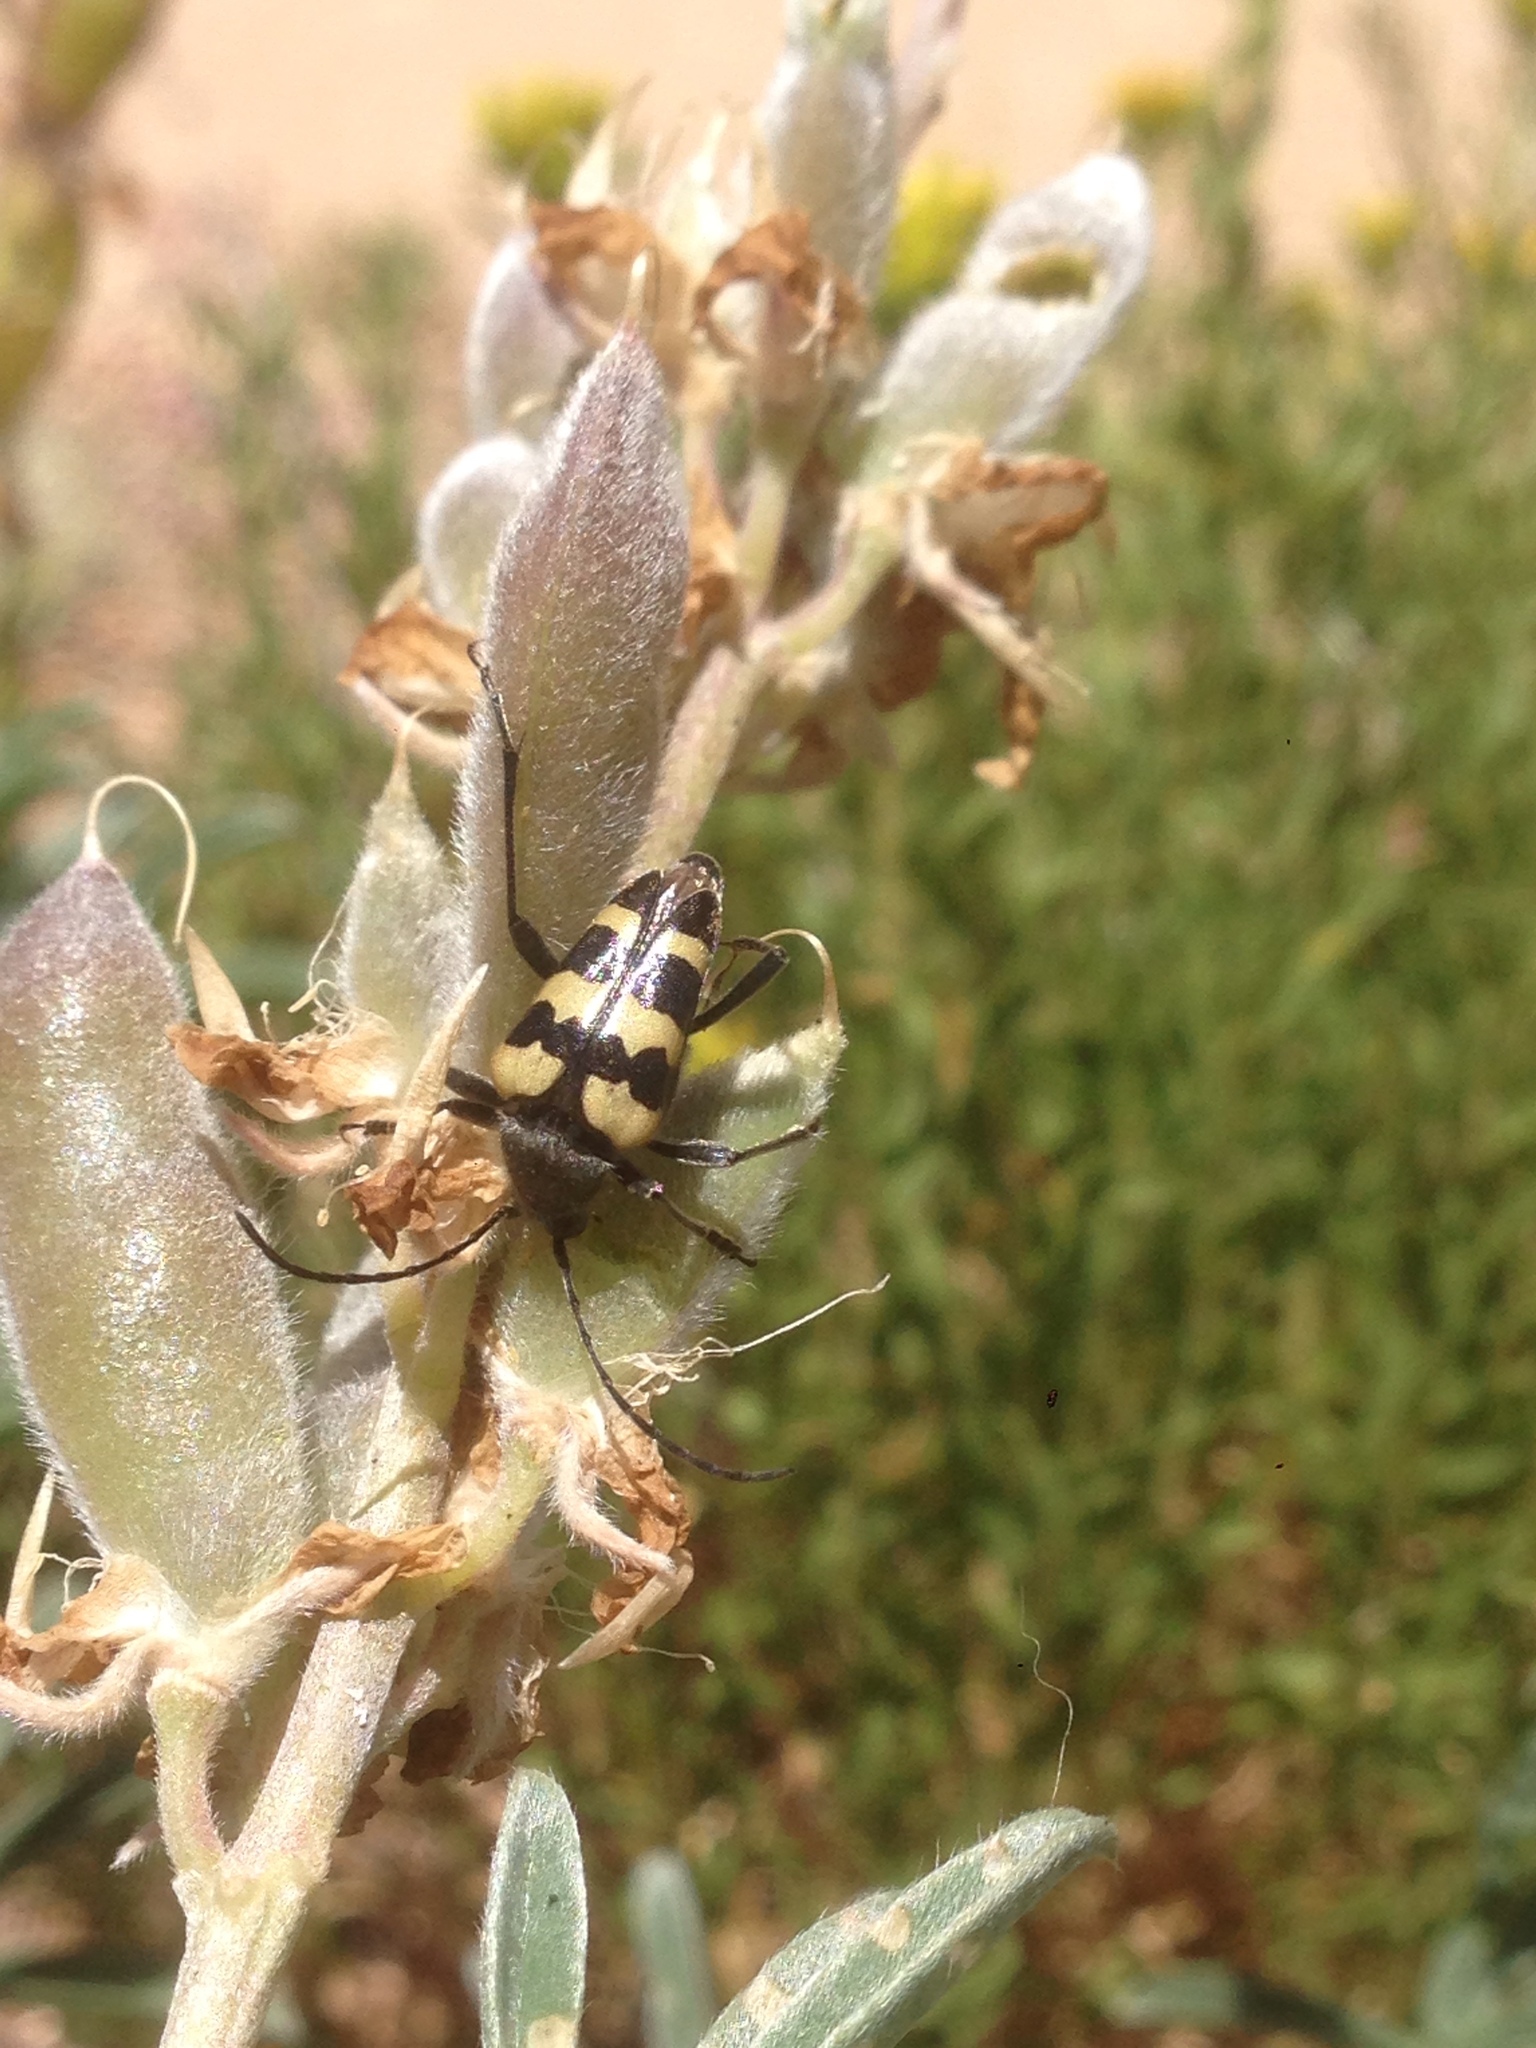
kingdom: Animalia
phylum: Arthropoda
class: Insecta
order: Coleoptera
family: Cerambycidae
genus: Judolia
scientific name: Judolia instabilis
